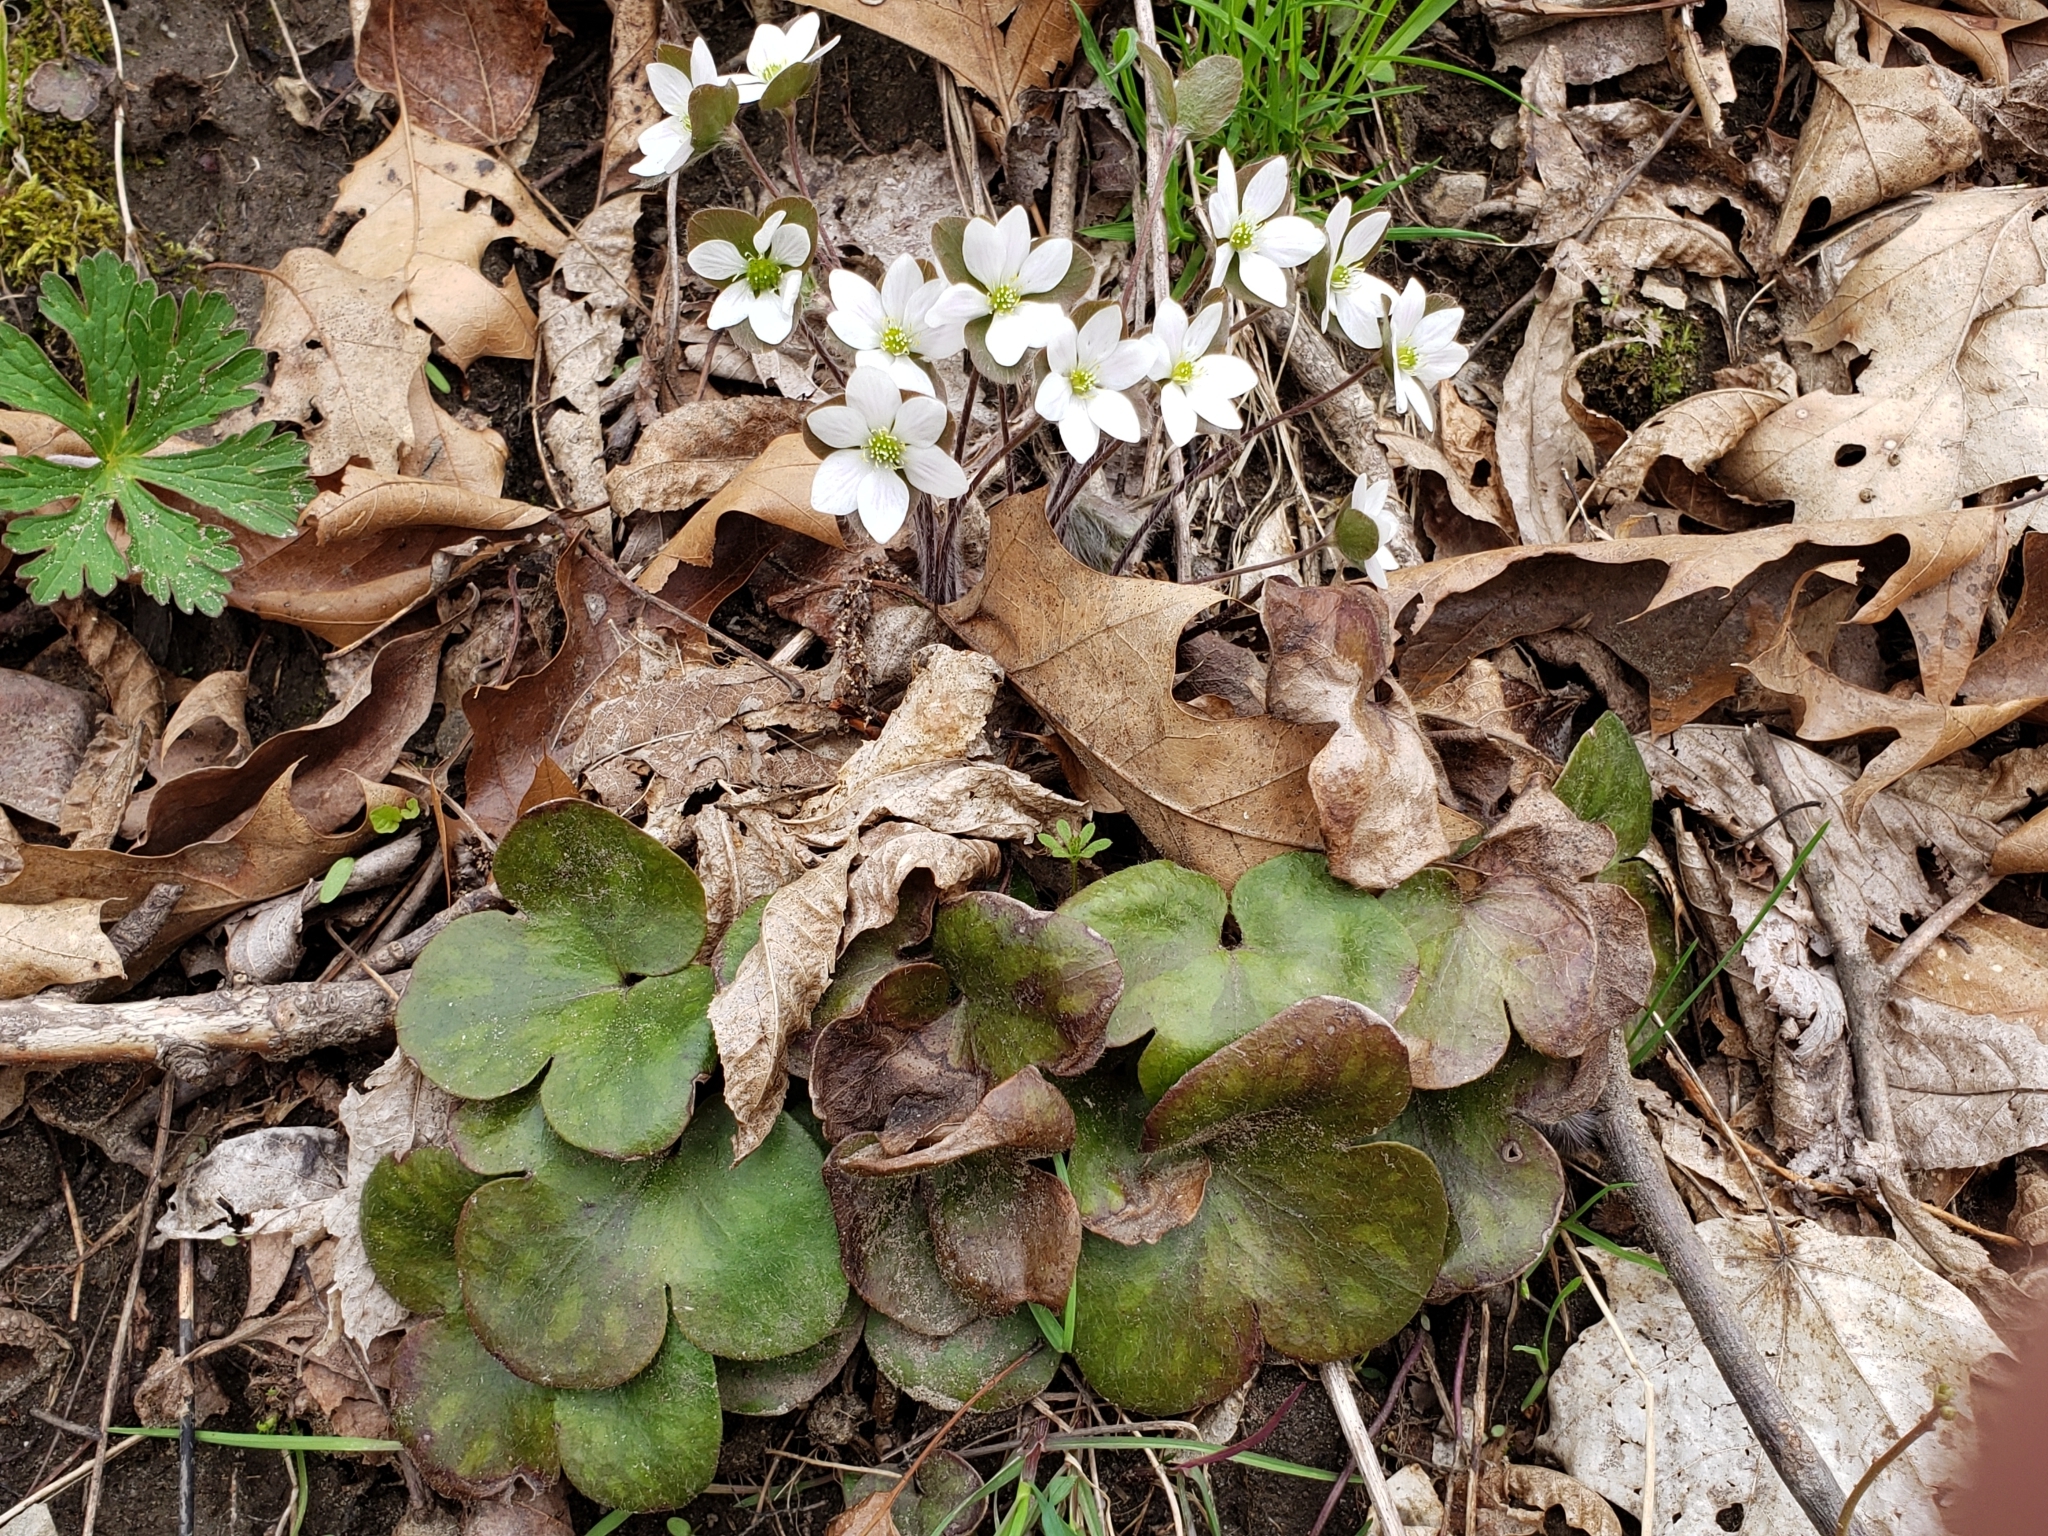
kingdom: Plantae
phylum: Tracheophyta
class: Magnoliopsida
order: Ranunculales
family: Ranunculaceae
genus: Hepatica
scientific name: Hepatica americana
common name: American hepatica
